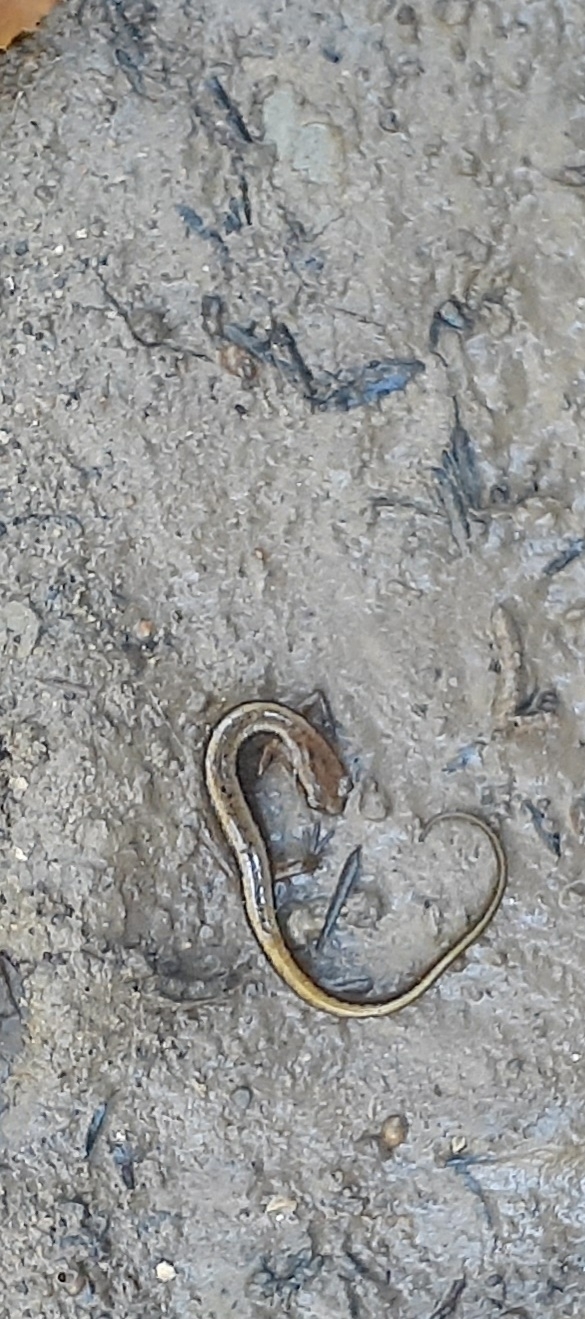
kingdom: Animalia
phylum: Chordata
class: Amphibia
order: Caudata
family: Plethodontidae
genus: Eurycea
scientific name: Eurycea cirrigera
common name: Southern two-lined salamander
